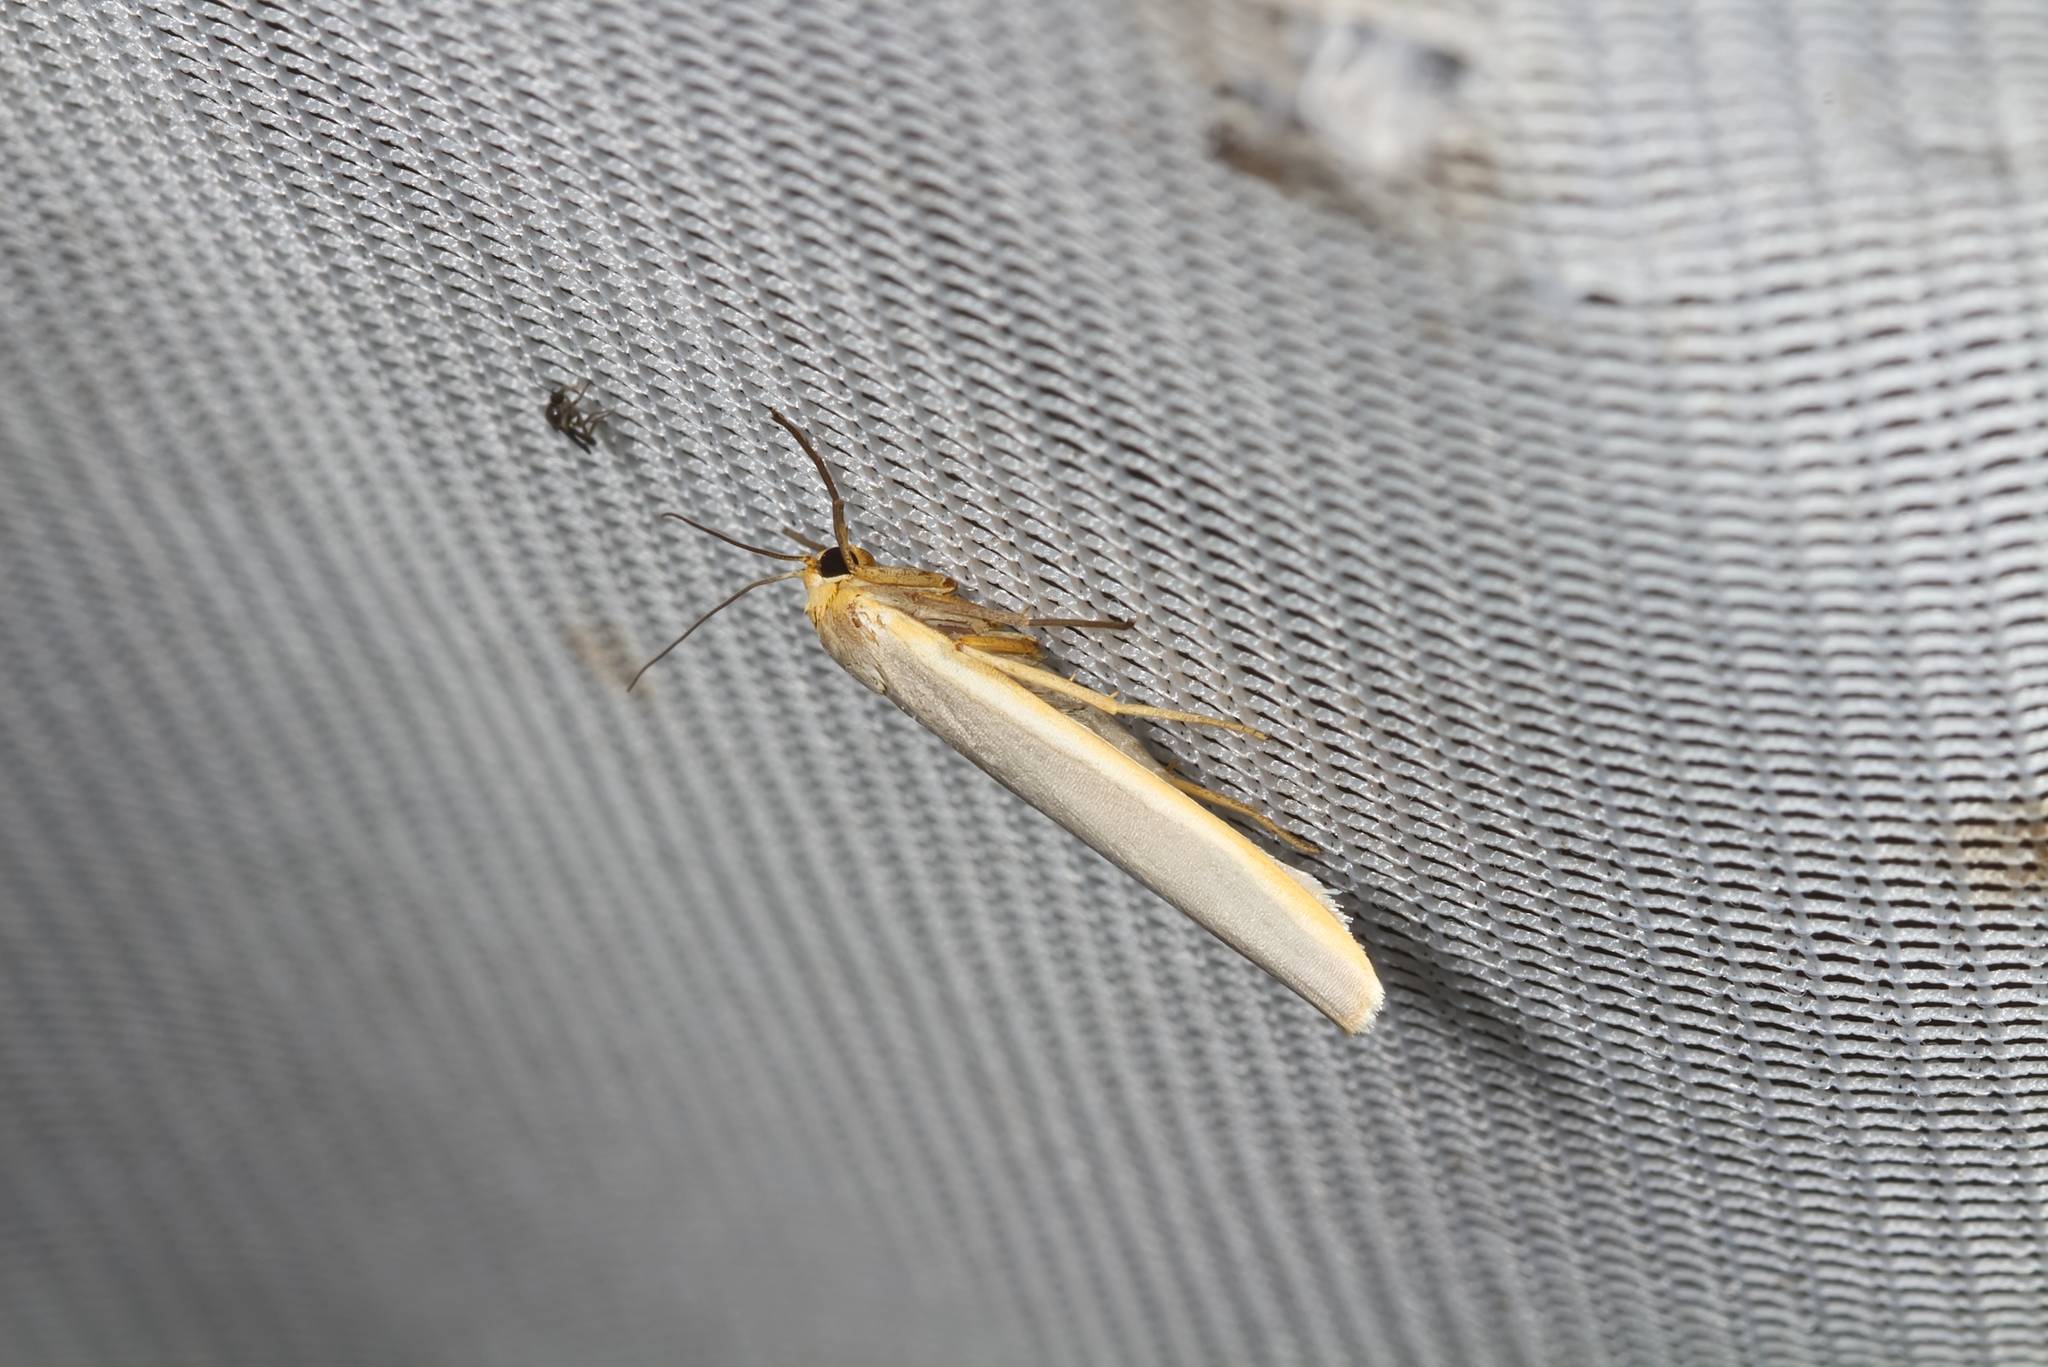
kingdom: Animalia
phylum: Arthropoda
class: Insecta
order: Lepidoptera
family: Erebidae
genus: Manulea
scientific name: Manulea complana
